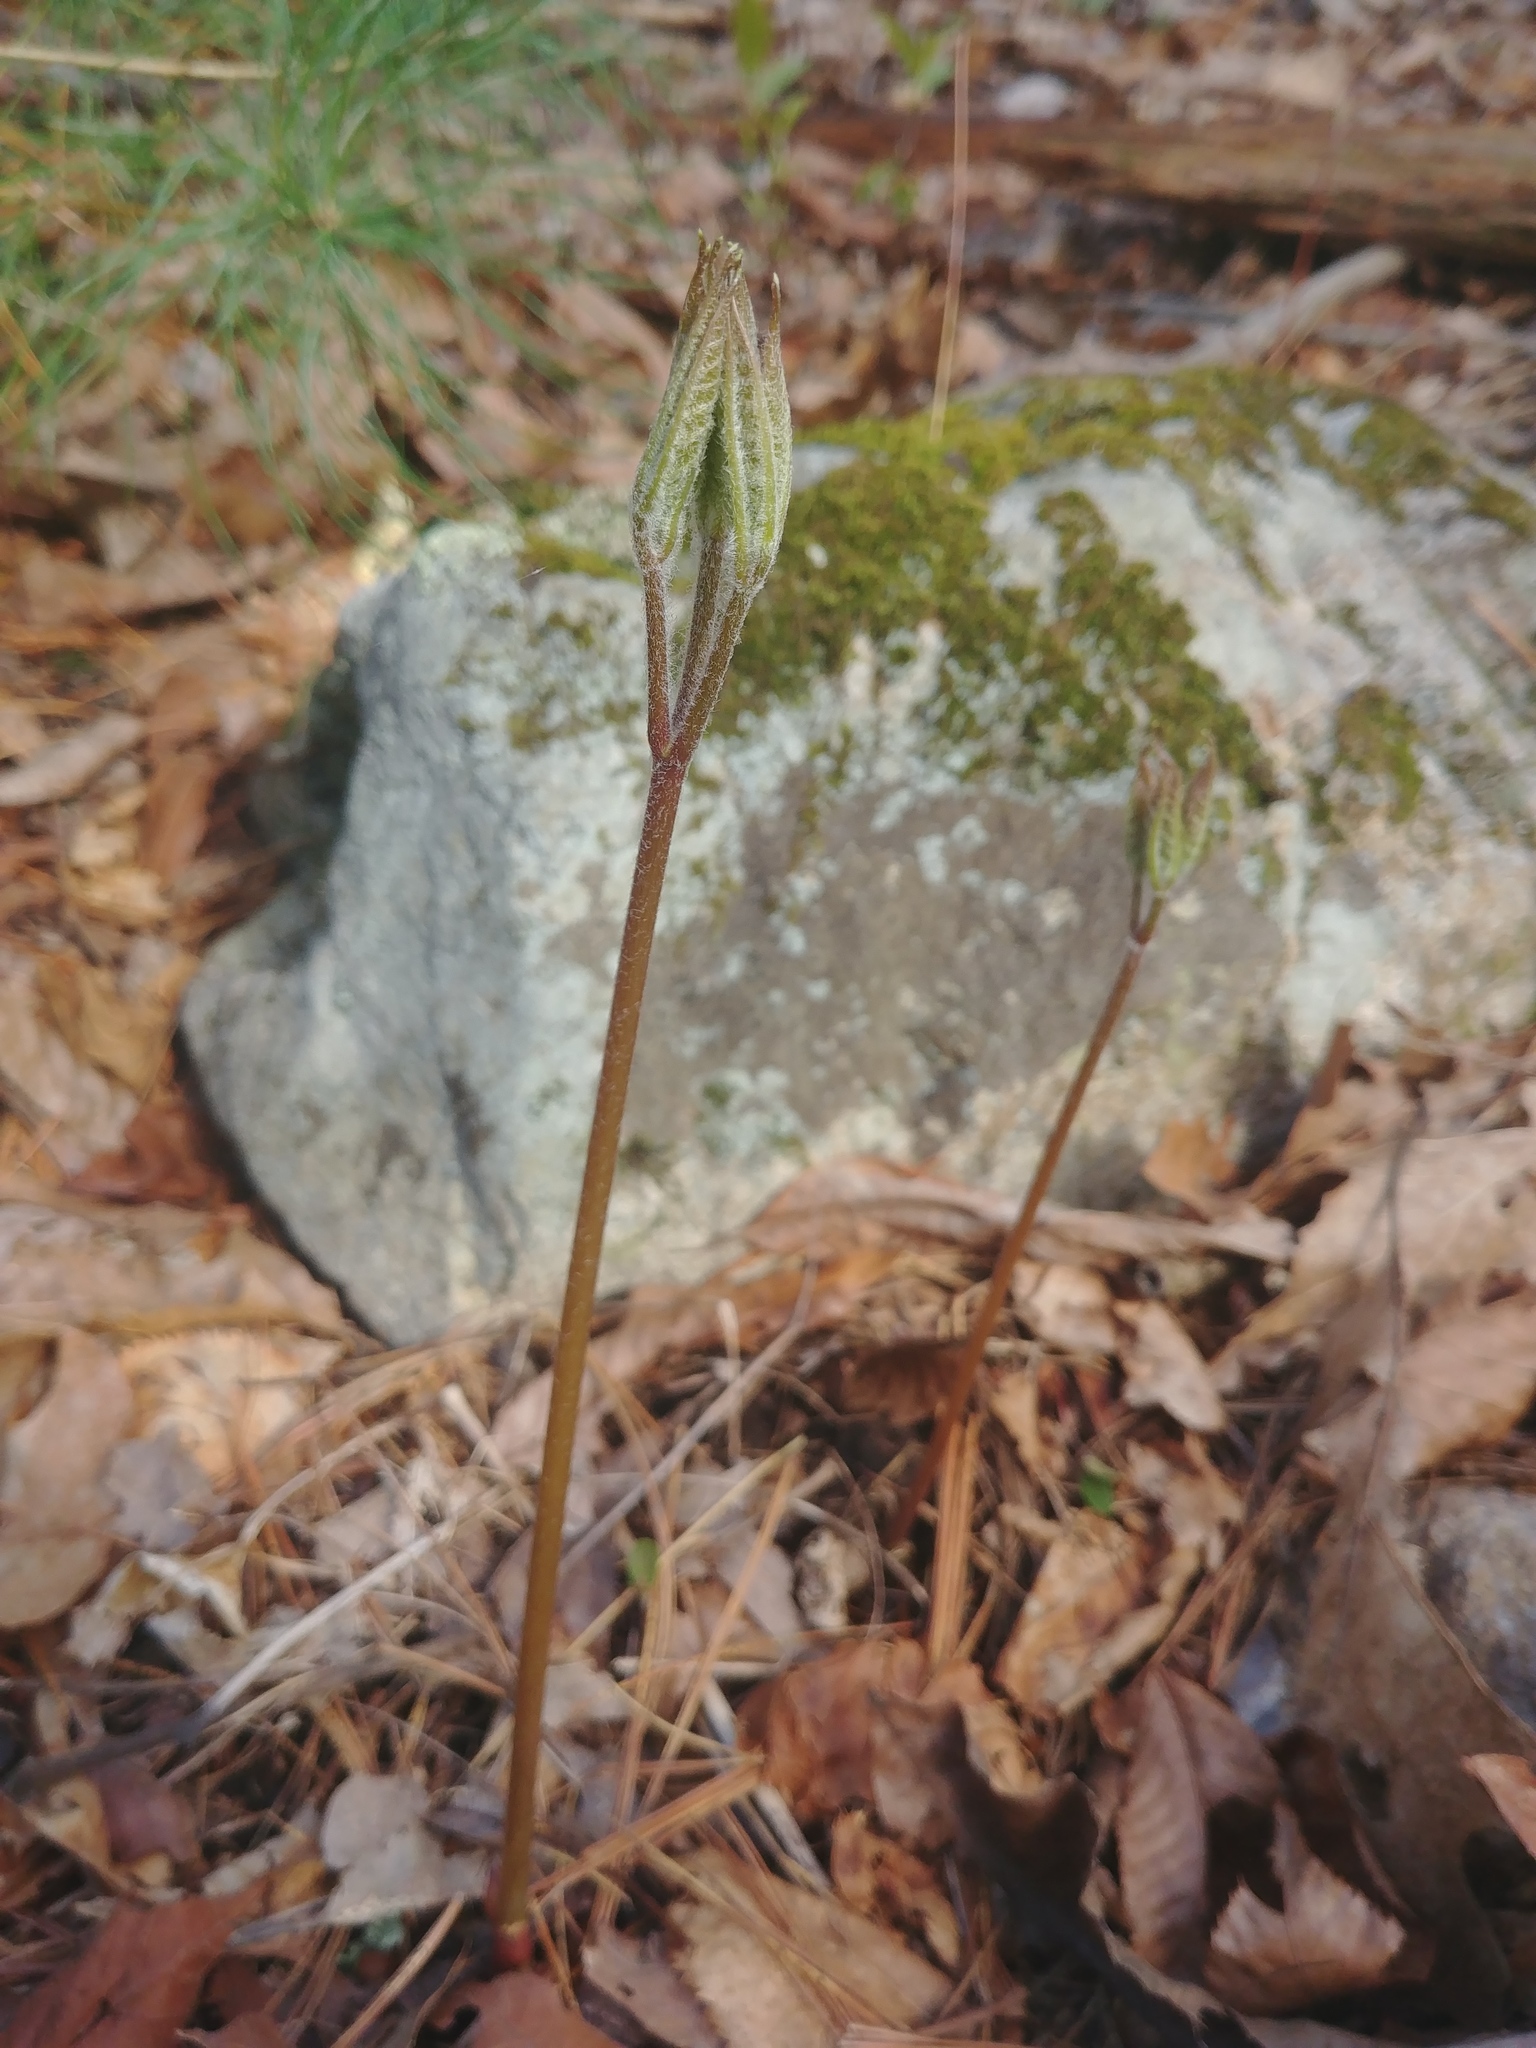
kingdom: Plantae
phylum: Tracheophyta
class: Magnoliopsida
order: Apiales
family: Araliaceae
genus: Aralia
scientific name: Aralia nudicaulis
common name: Wild sarsaparilla
